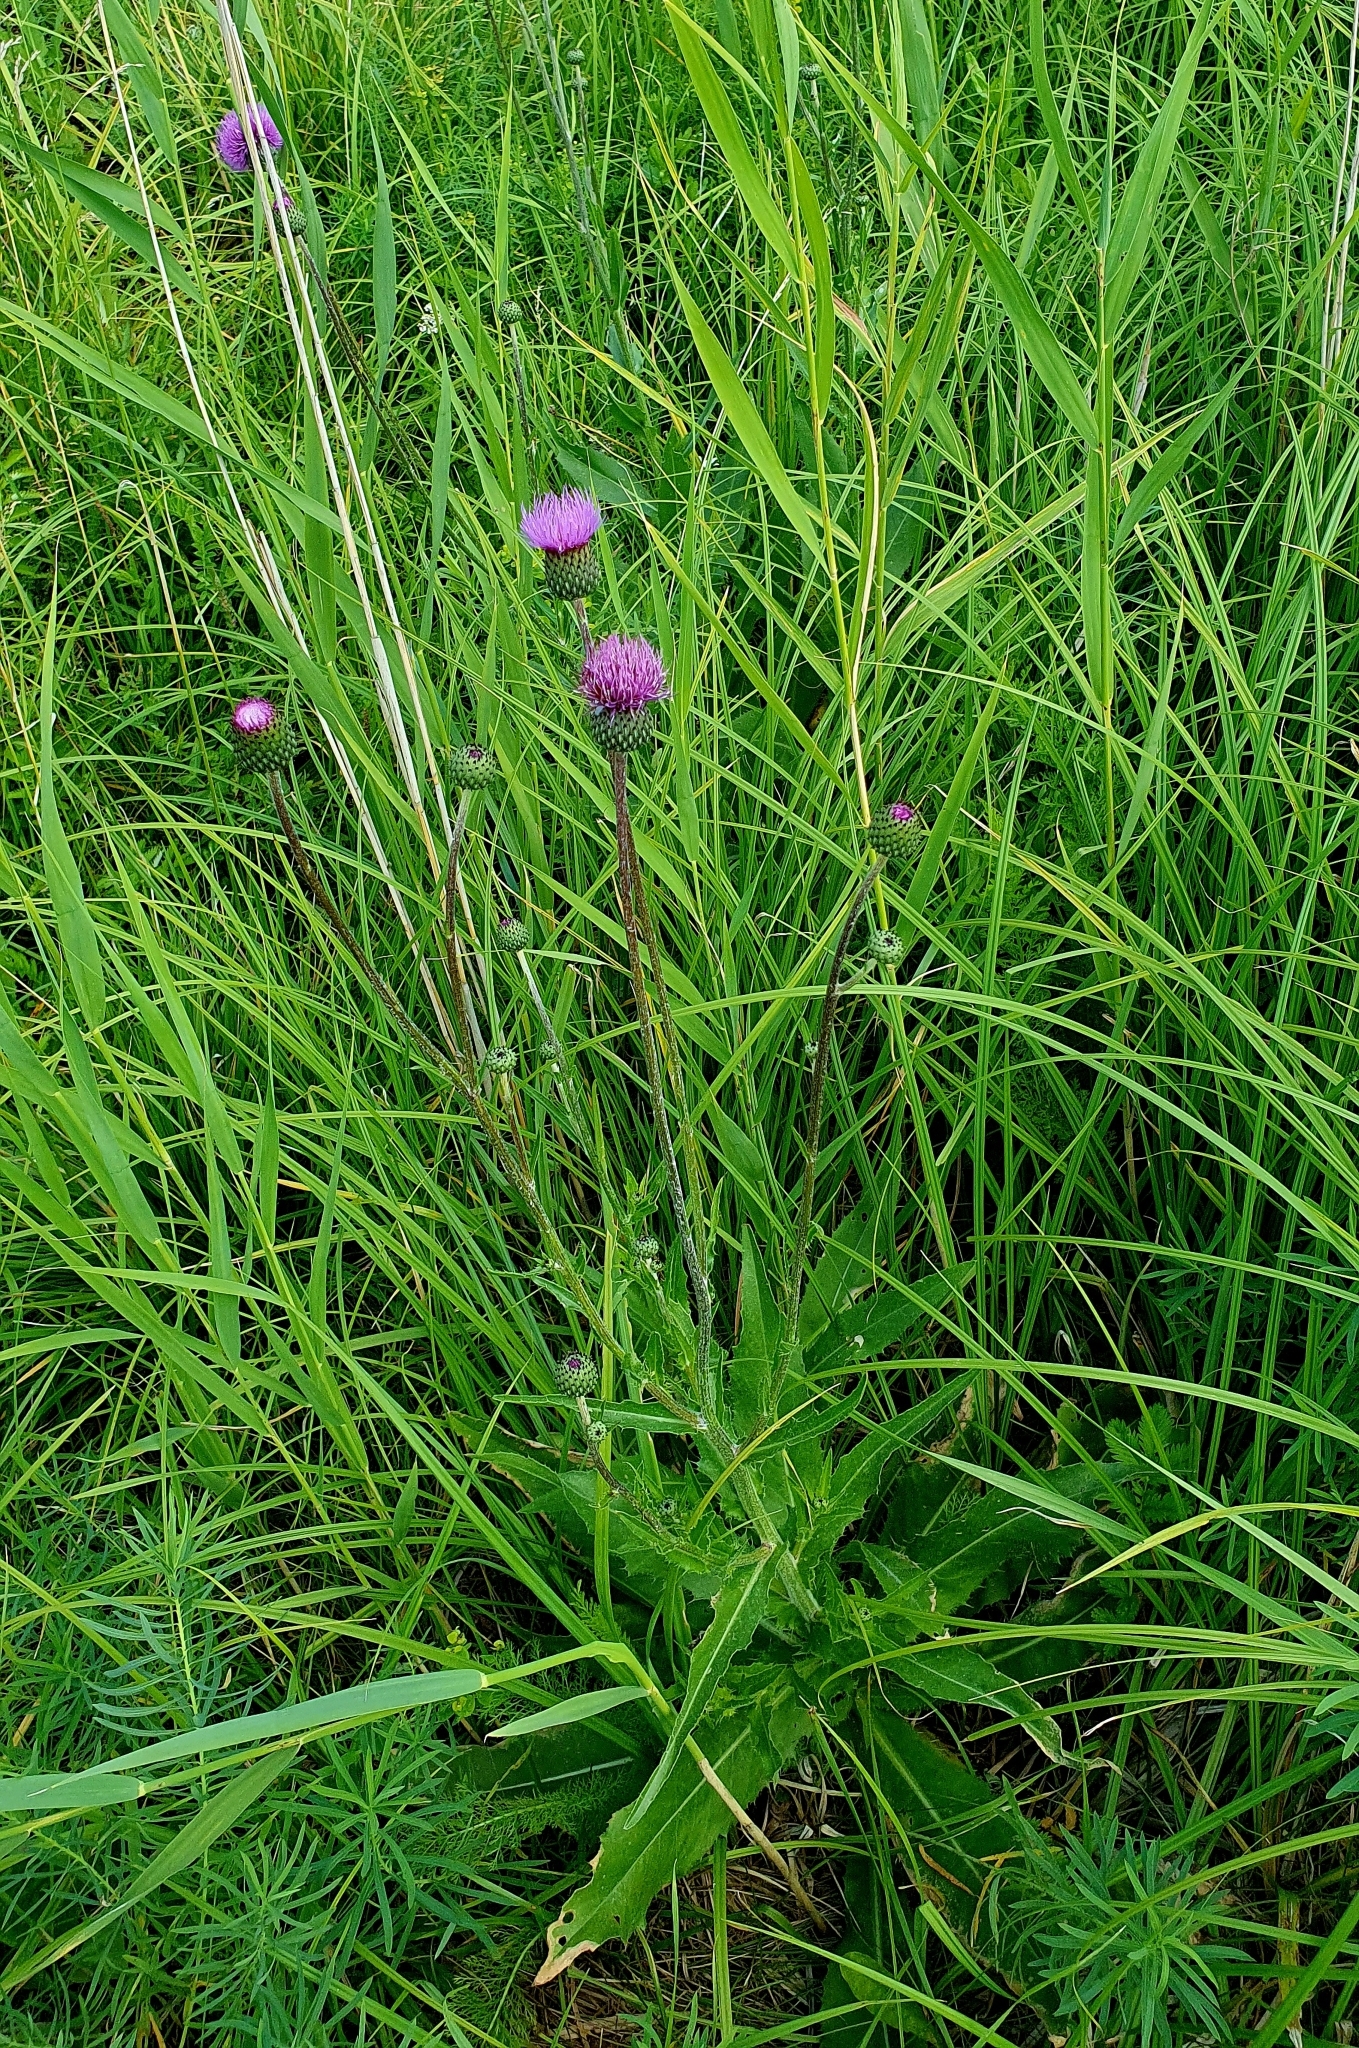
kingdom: Plantae
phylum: Tracheophyta
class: Magnoliopsida
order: Asterales
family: Asteraceae
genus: Cirsium
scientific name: Cirsium canum
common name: Queen anne's thistle
